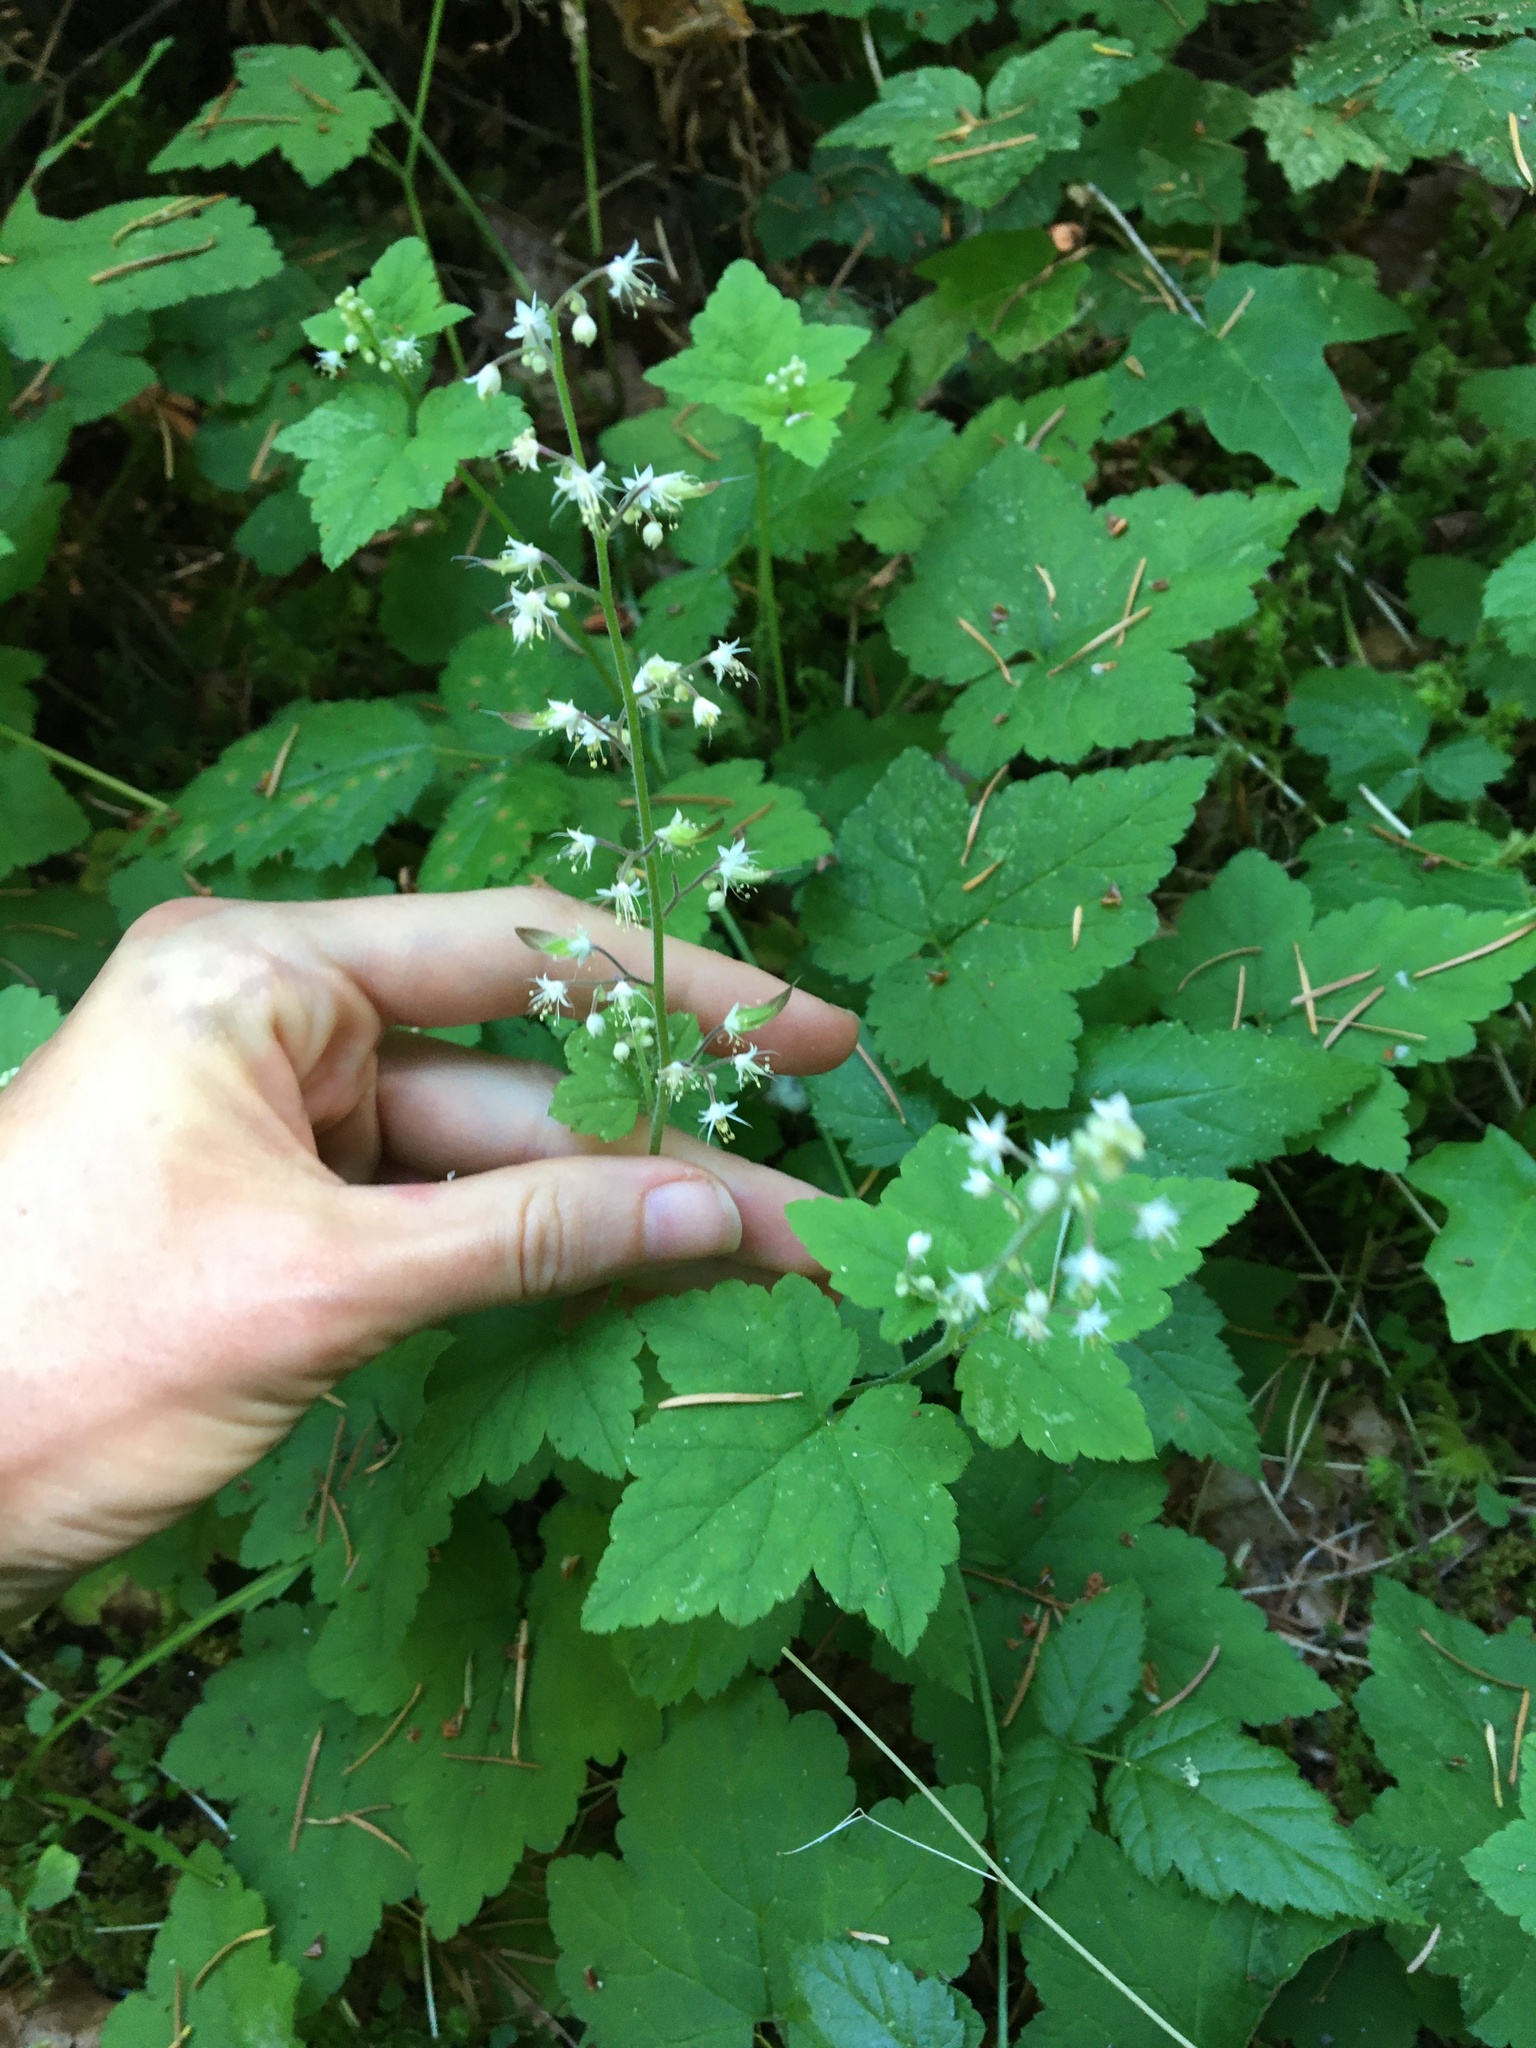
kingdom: Plantae
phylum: Tracheophyta
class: Magnoliopsida
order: Saxifragales
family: Saxifragaceae
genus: Tiarella
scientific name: Tiarella trifoliata
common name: Sugar-scoop
